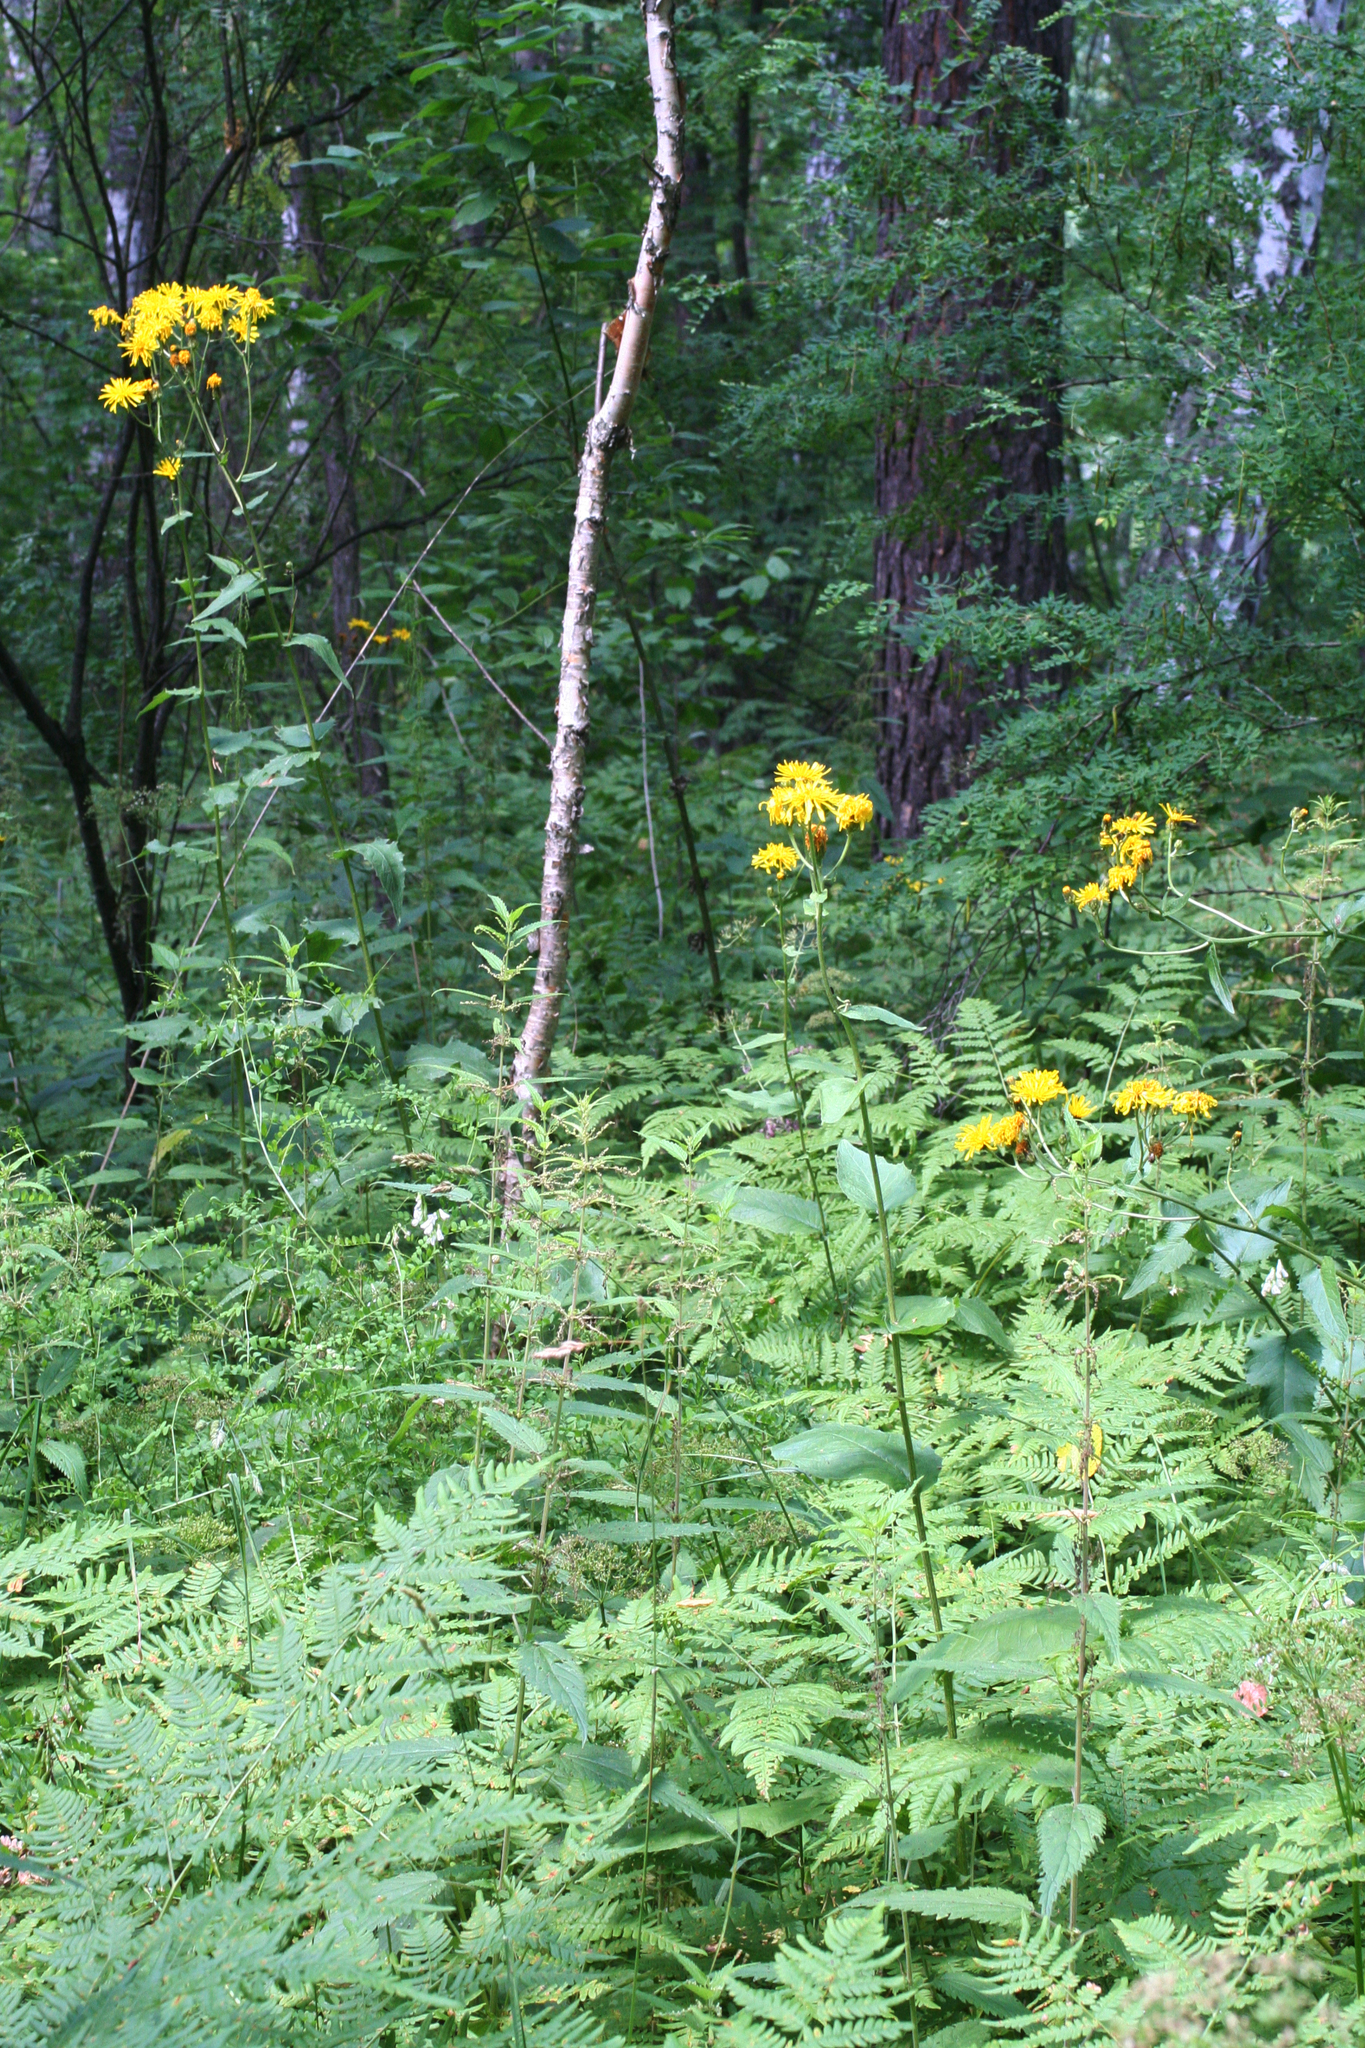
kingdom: Plantae
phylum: Tracheophyta
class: Magnoliopsida
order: Asterales
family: Asteraceae
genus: Crepis
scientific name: Crepis sibirica
